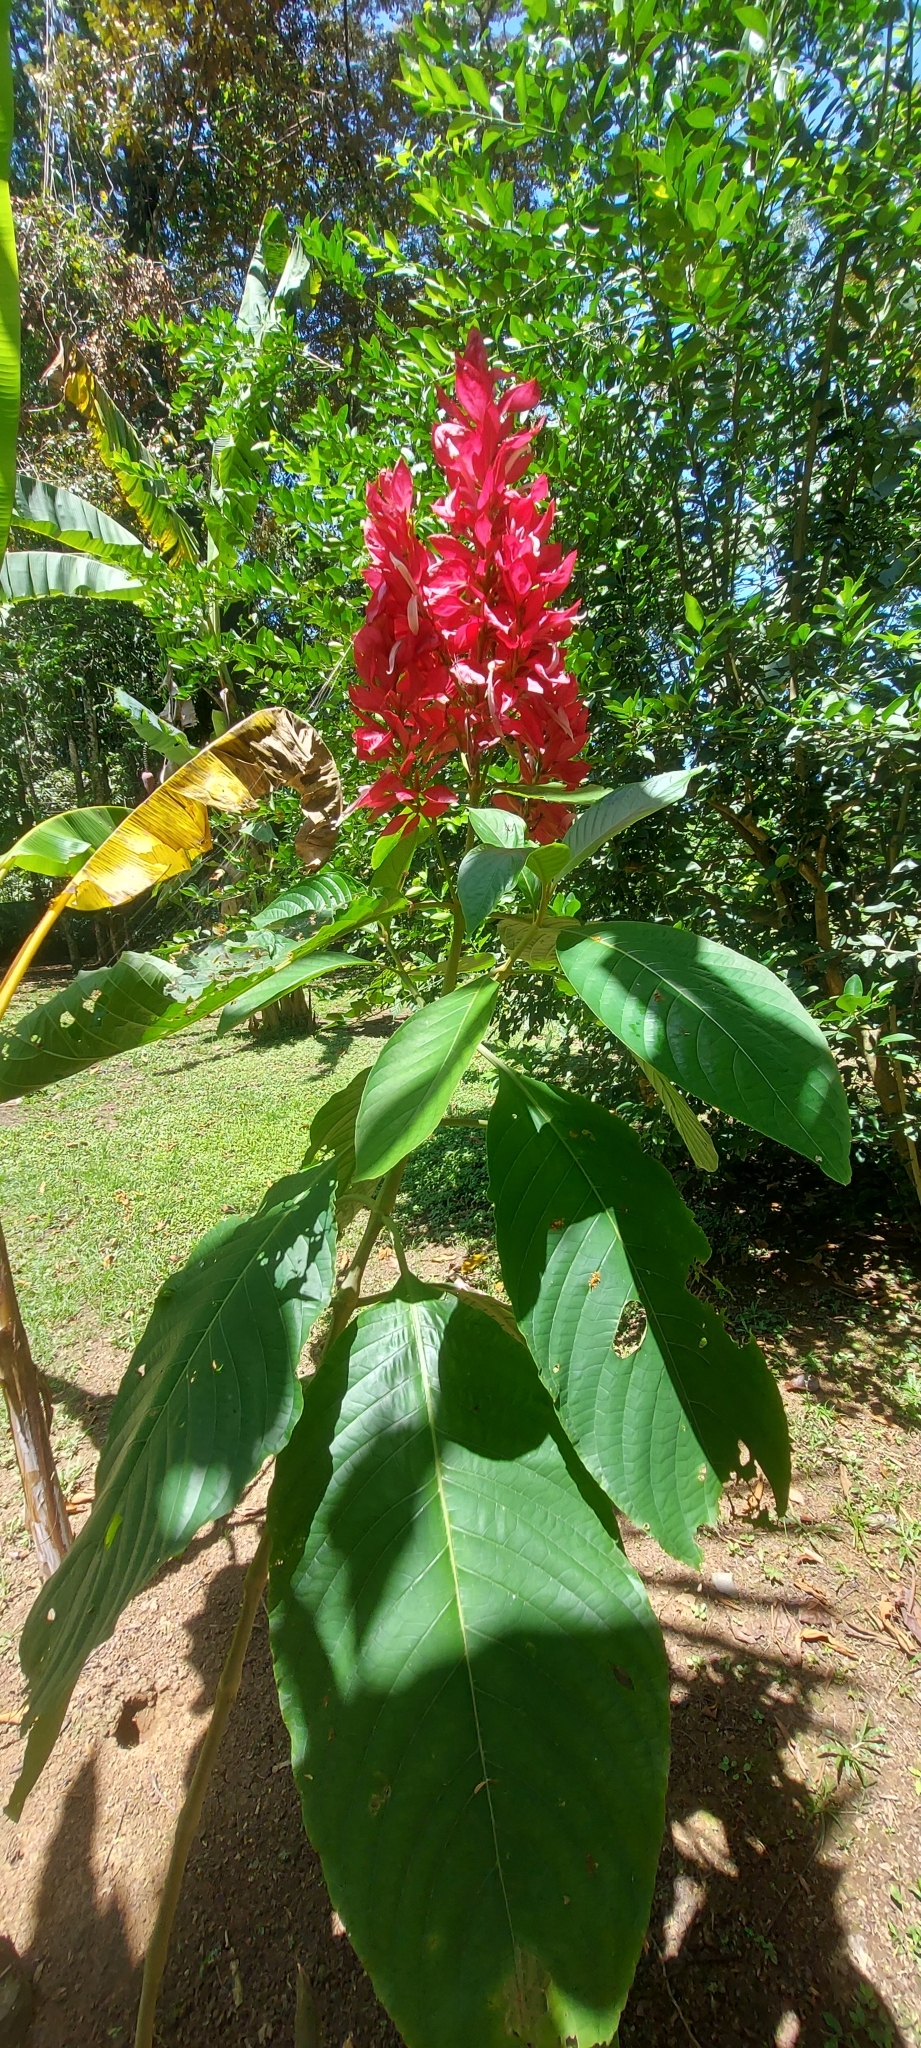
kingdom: Plantae
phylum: Tracheophyta
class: Magnoliopsida
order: Lamiales
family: Acanthaceae
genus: Megaskepasma
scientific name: Megaskepasma erythrochlamys
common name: Brazilian red-cloak
